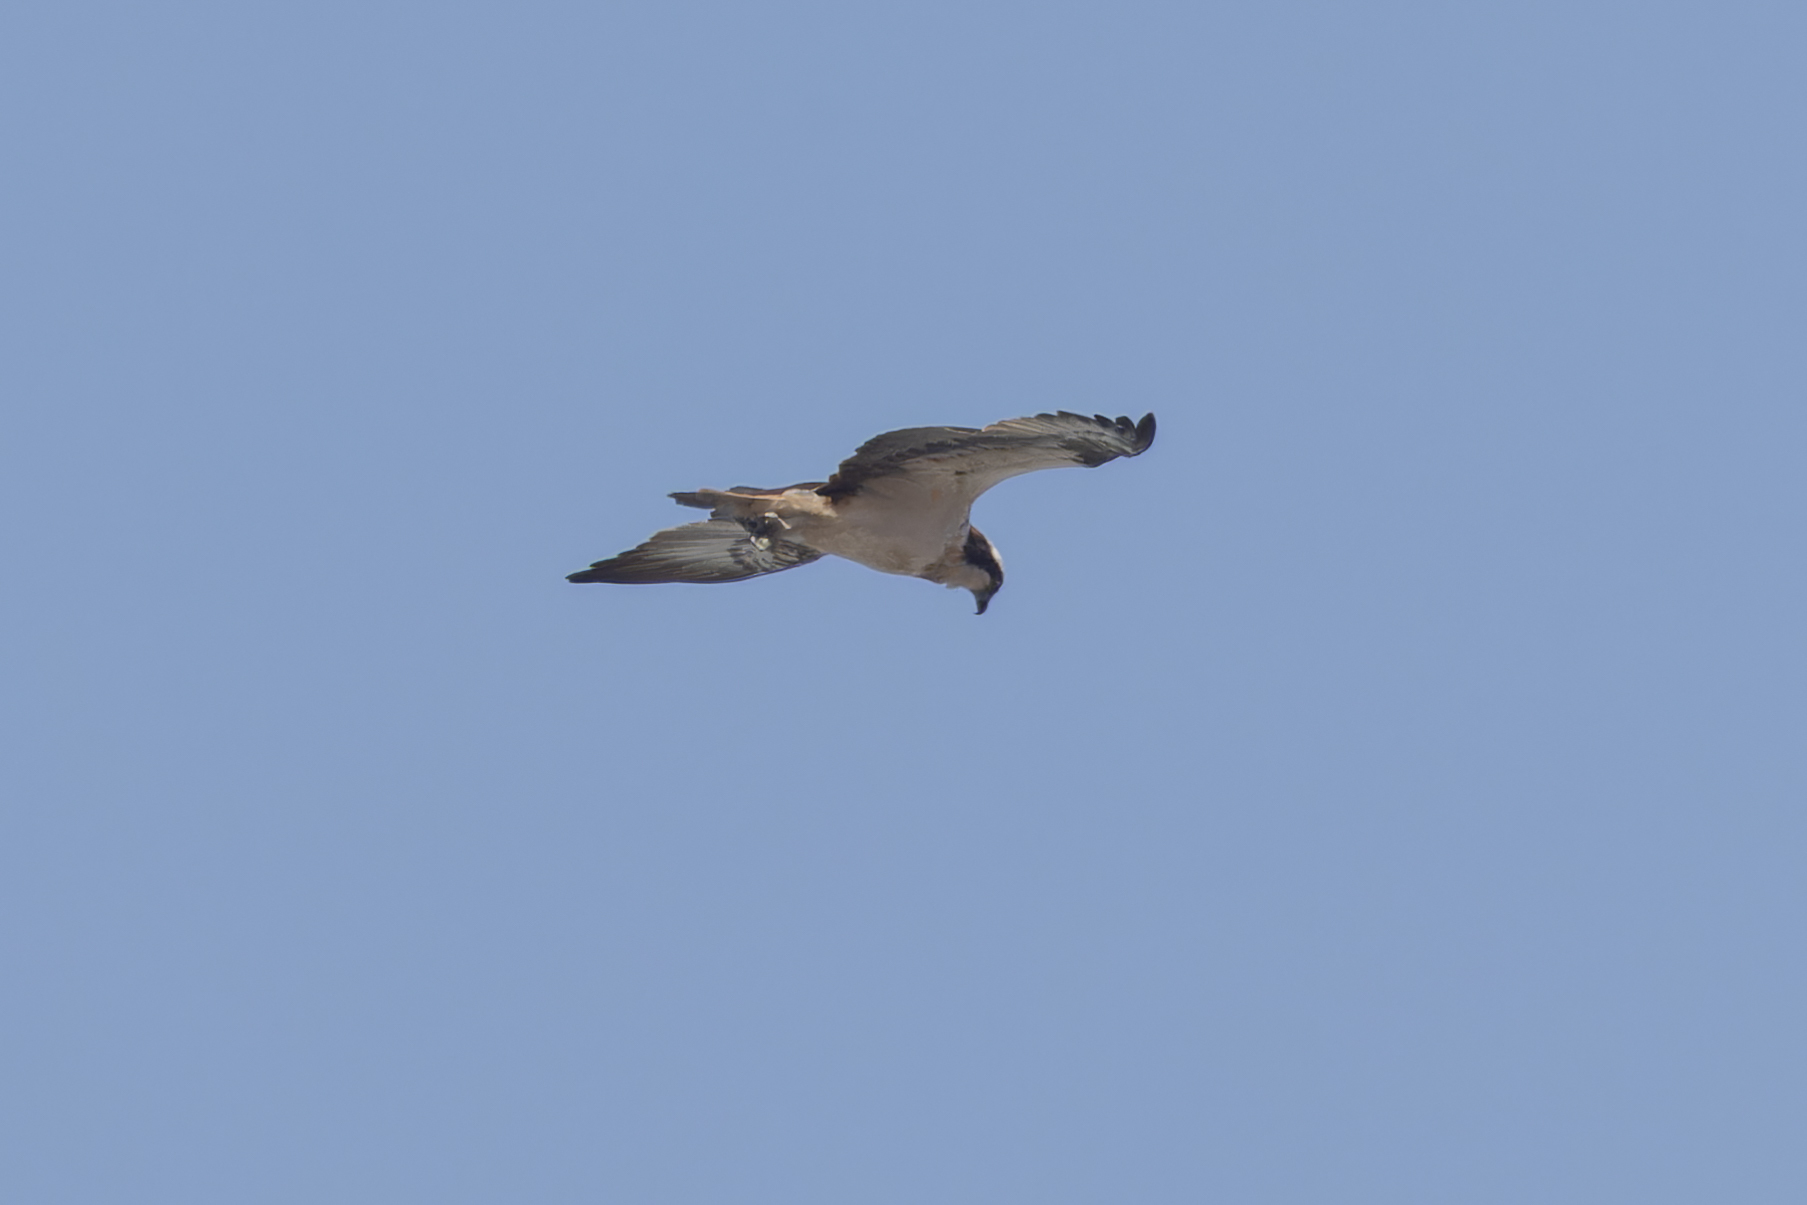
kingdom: Animalia
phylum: Chordata
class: Aves
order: Accipitriformes
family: Pandionidae
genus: Pandion
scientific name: Pandion haliaetus
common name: Osprey
